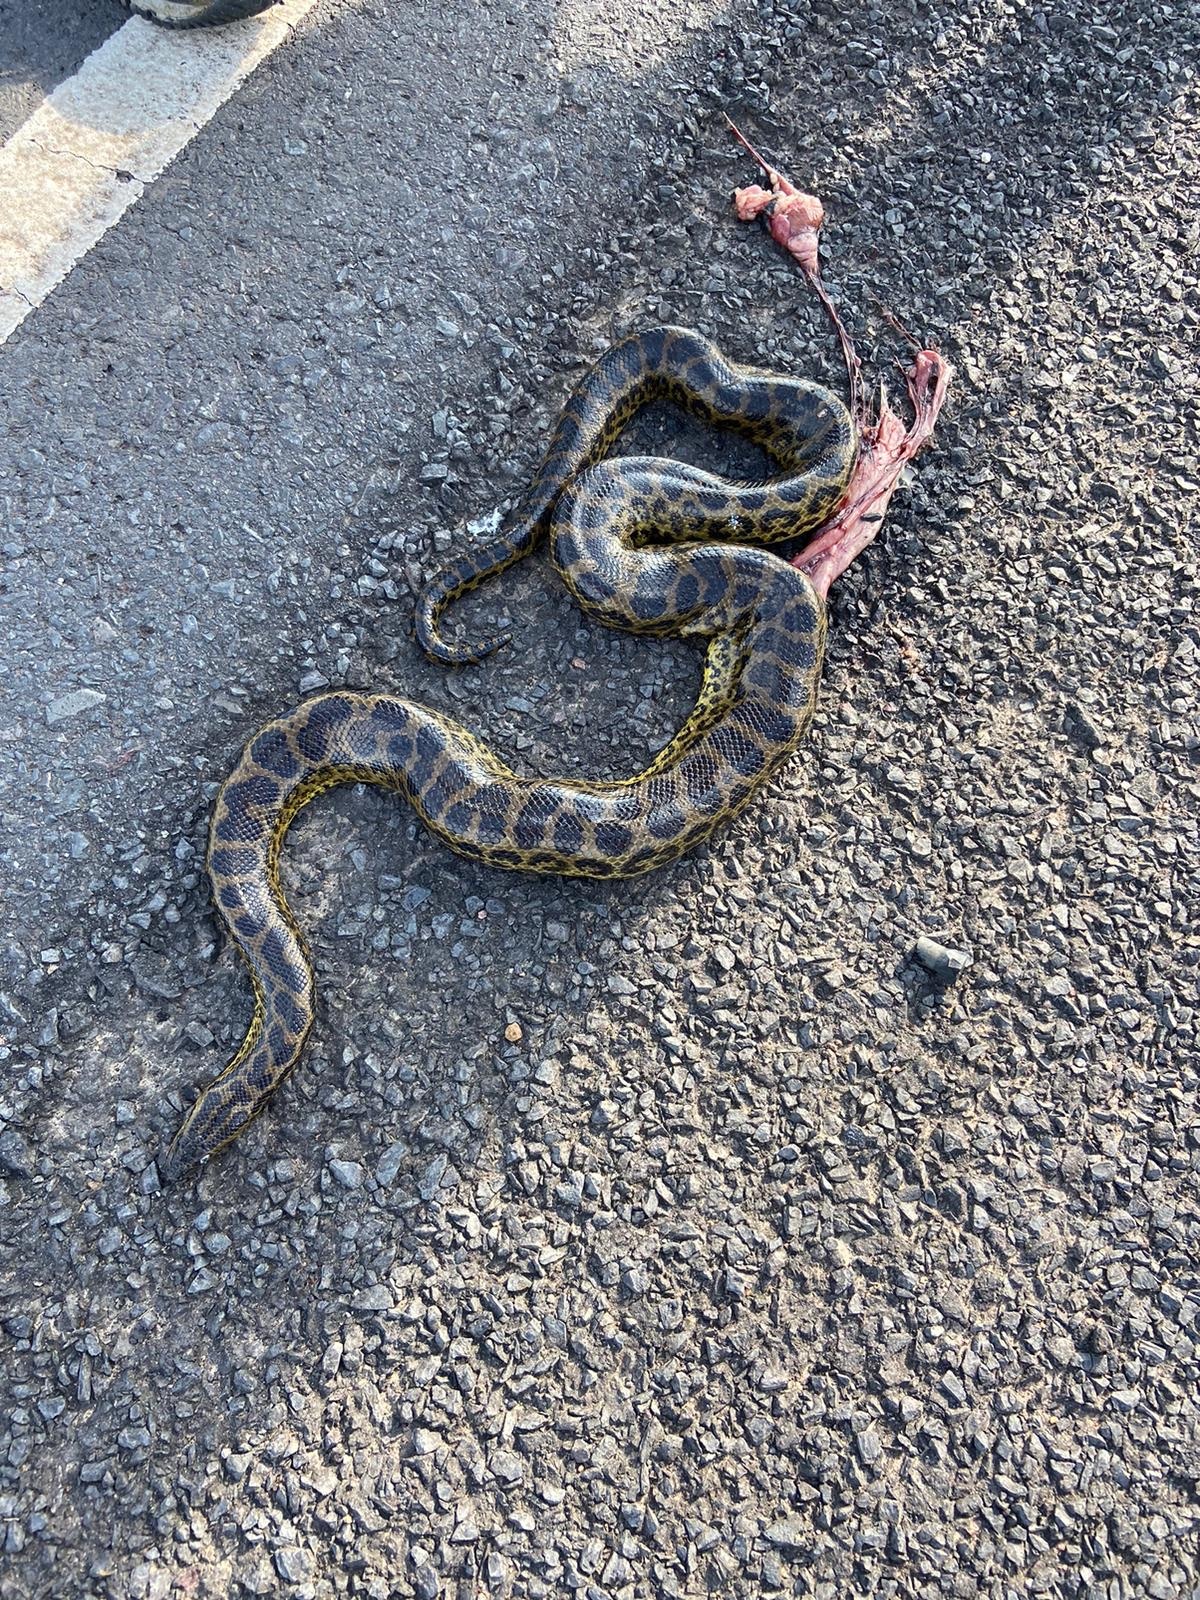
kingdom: Animalia
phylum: Chordata
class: Squamata
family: Boidae
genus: Eunectes
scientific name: Eunectes notaeus
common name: Yellow anaconda
